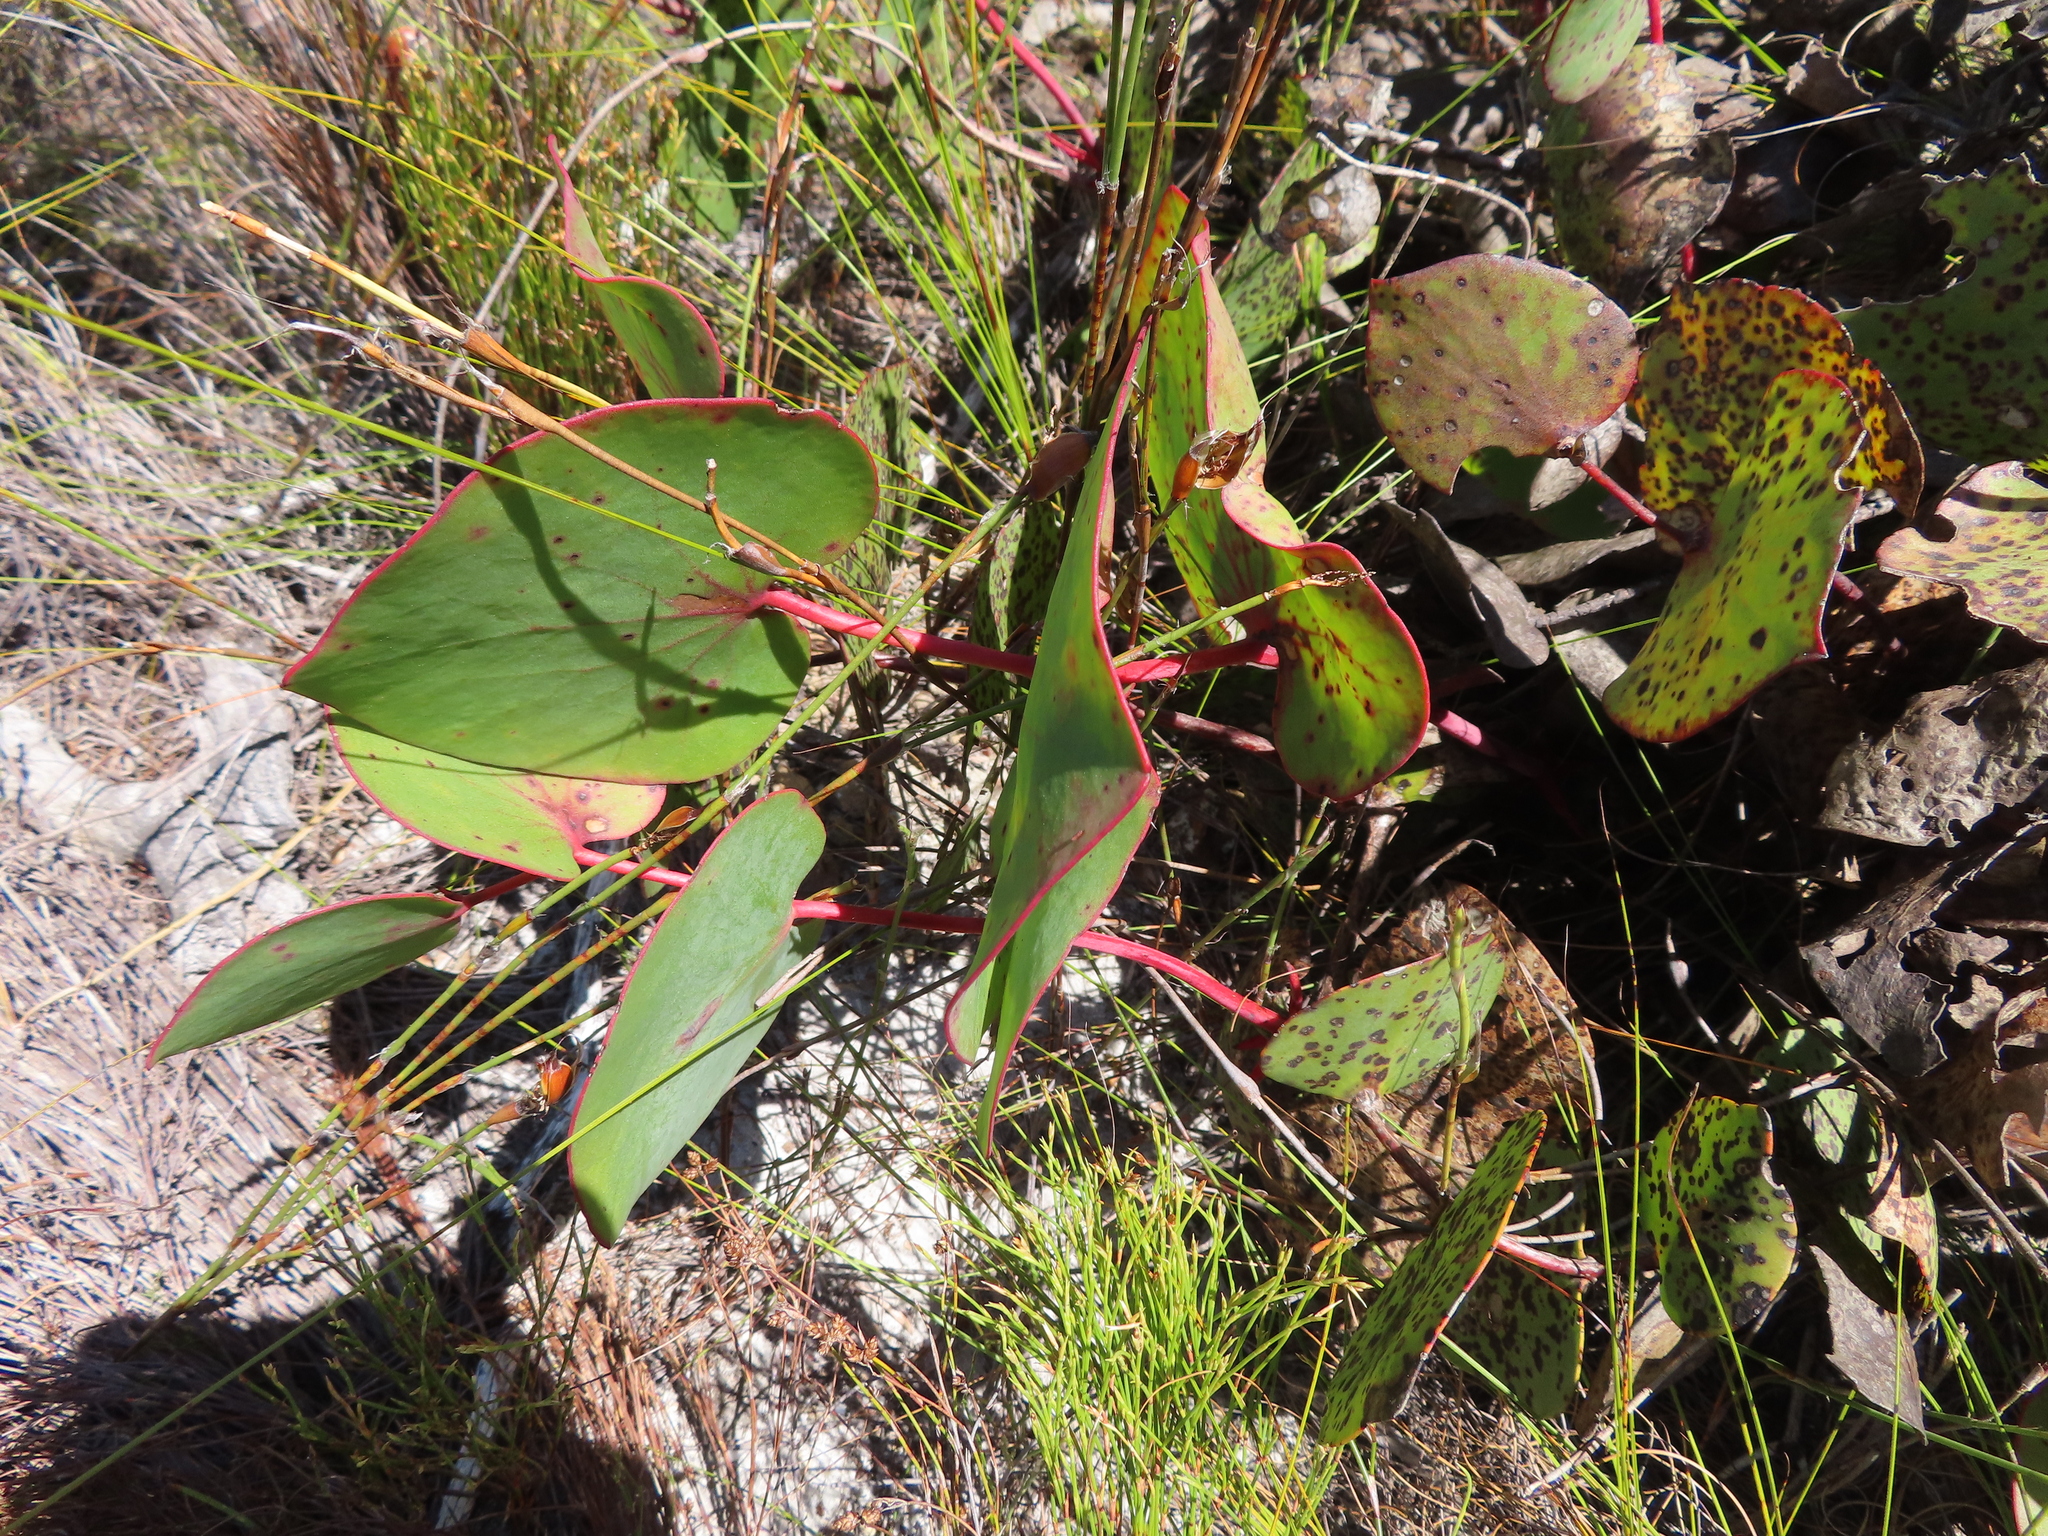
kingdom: Plantae
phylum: Tracheophyta
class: Magnoliopsida
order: Proteales
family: Proteaceae
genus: Protea
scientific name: Protea cordata
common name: Heart-leaf sugarbush
